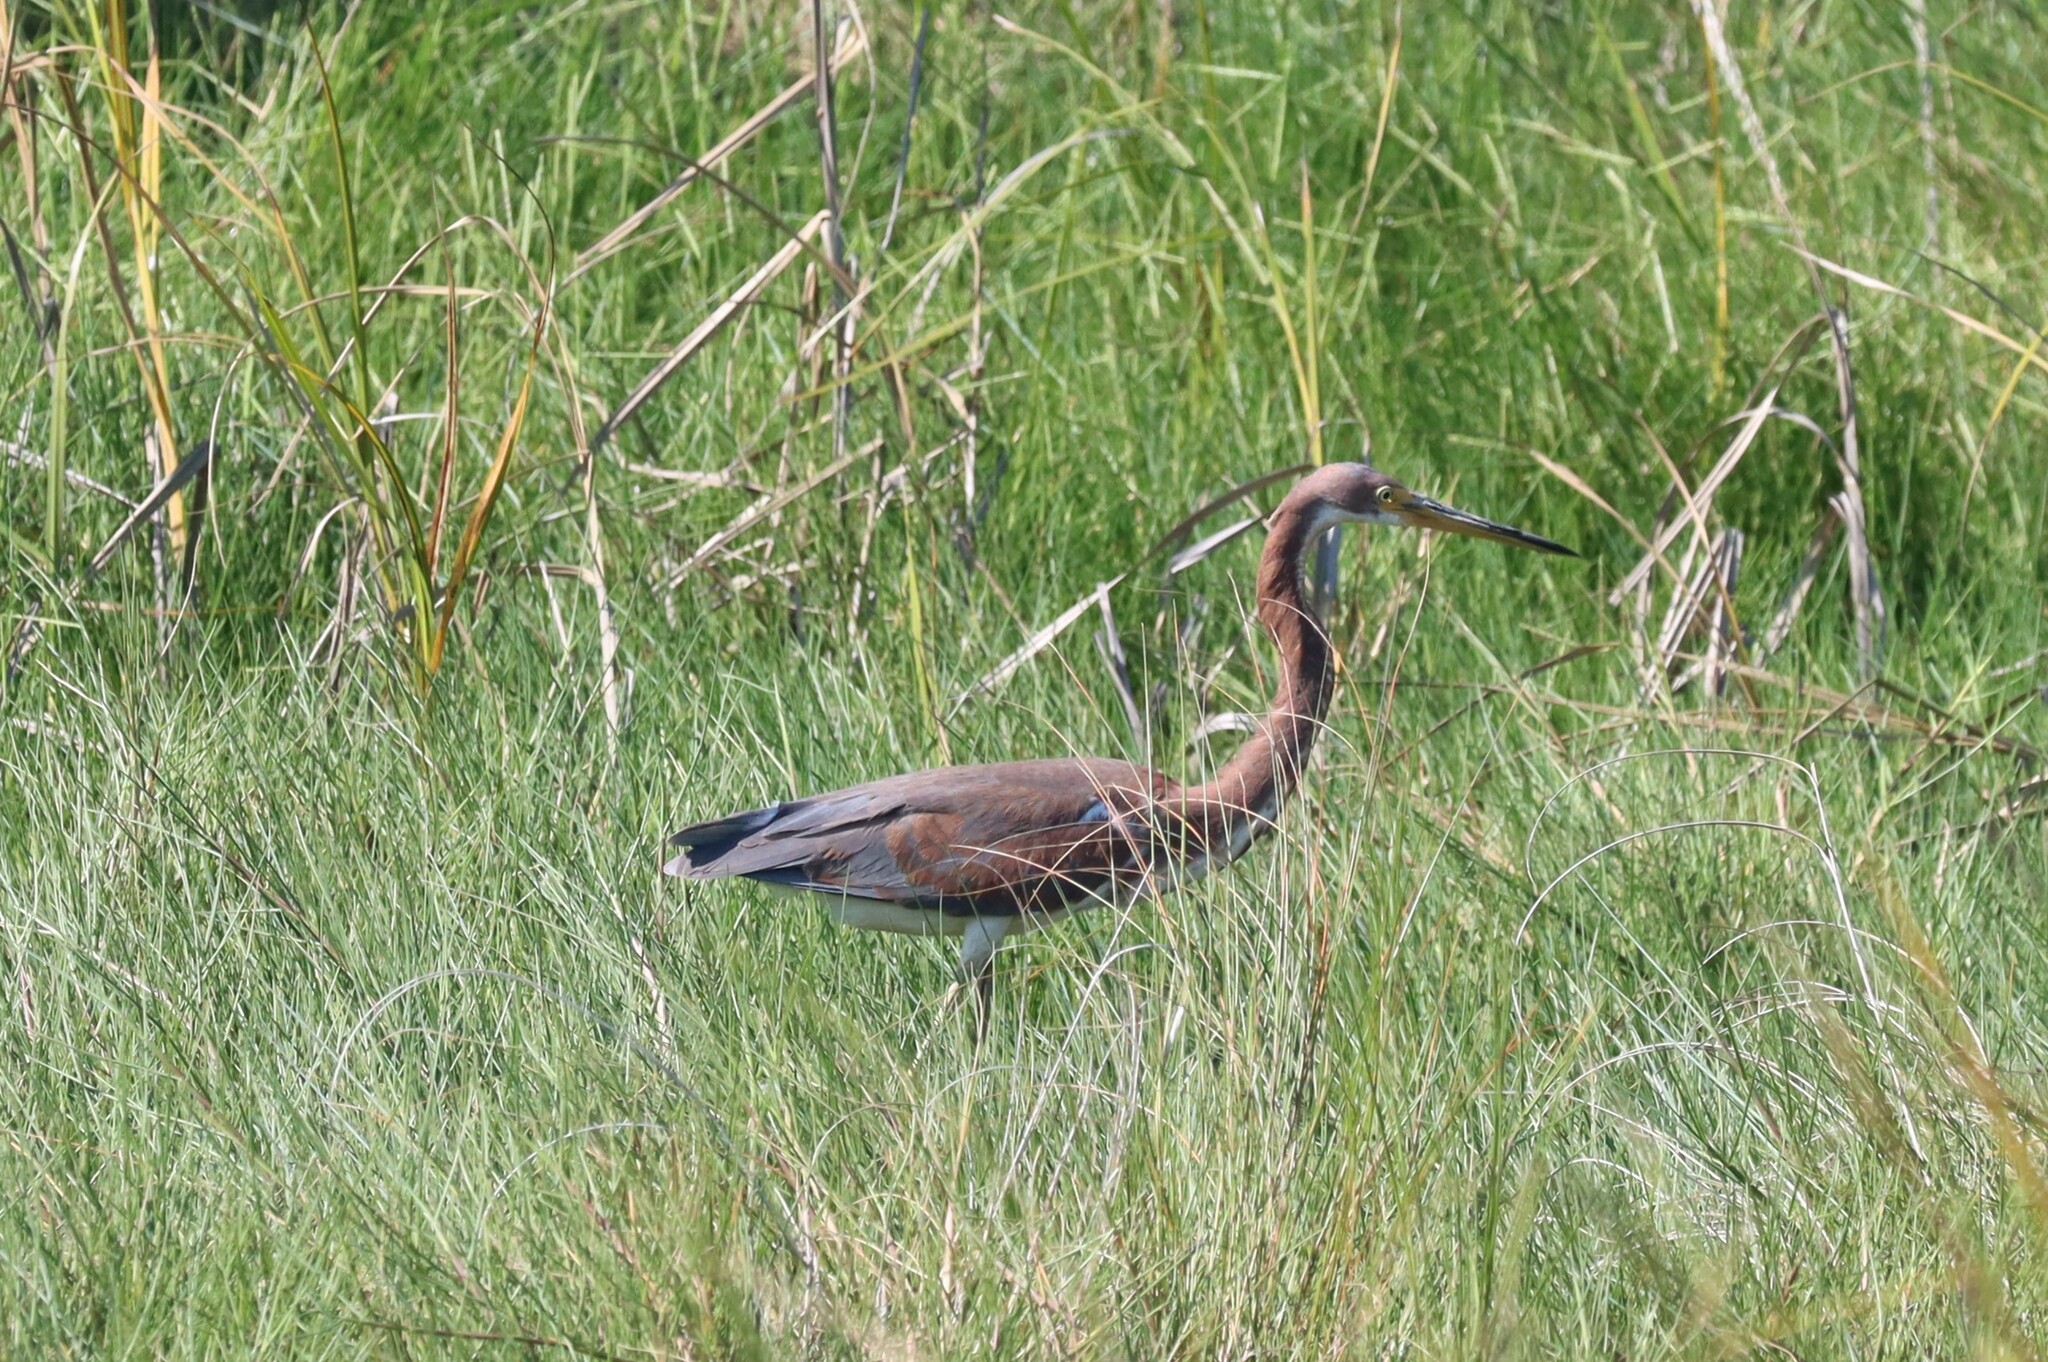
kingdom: Animalia
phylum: Chordata
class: Aves
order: Pelecaniformes
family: Ardeidae
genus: Egretta
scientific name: Egretta tricolor
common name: Tricolored heron
